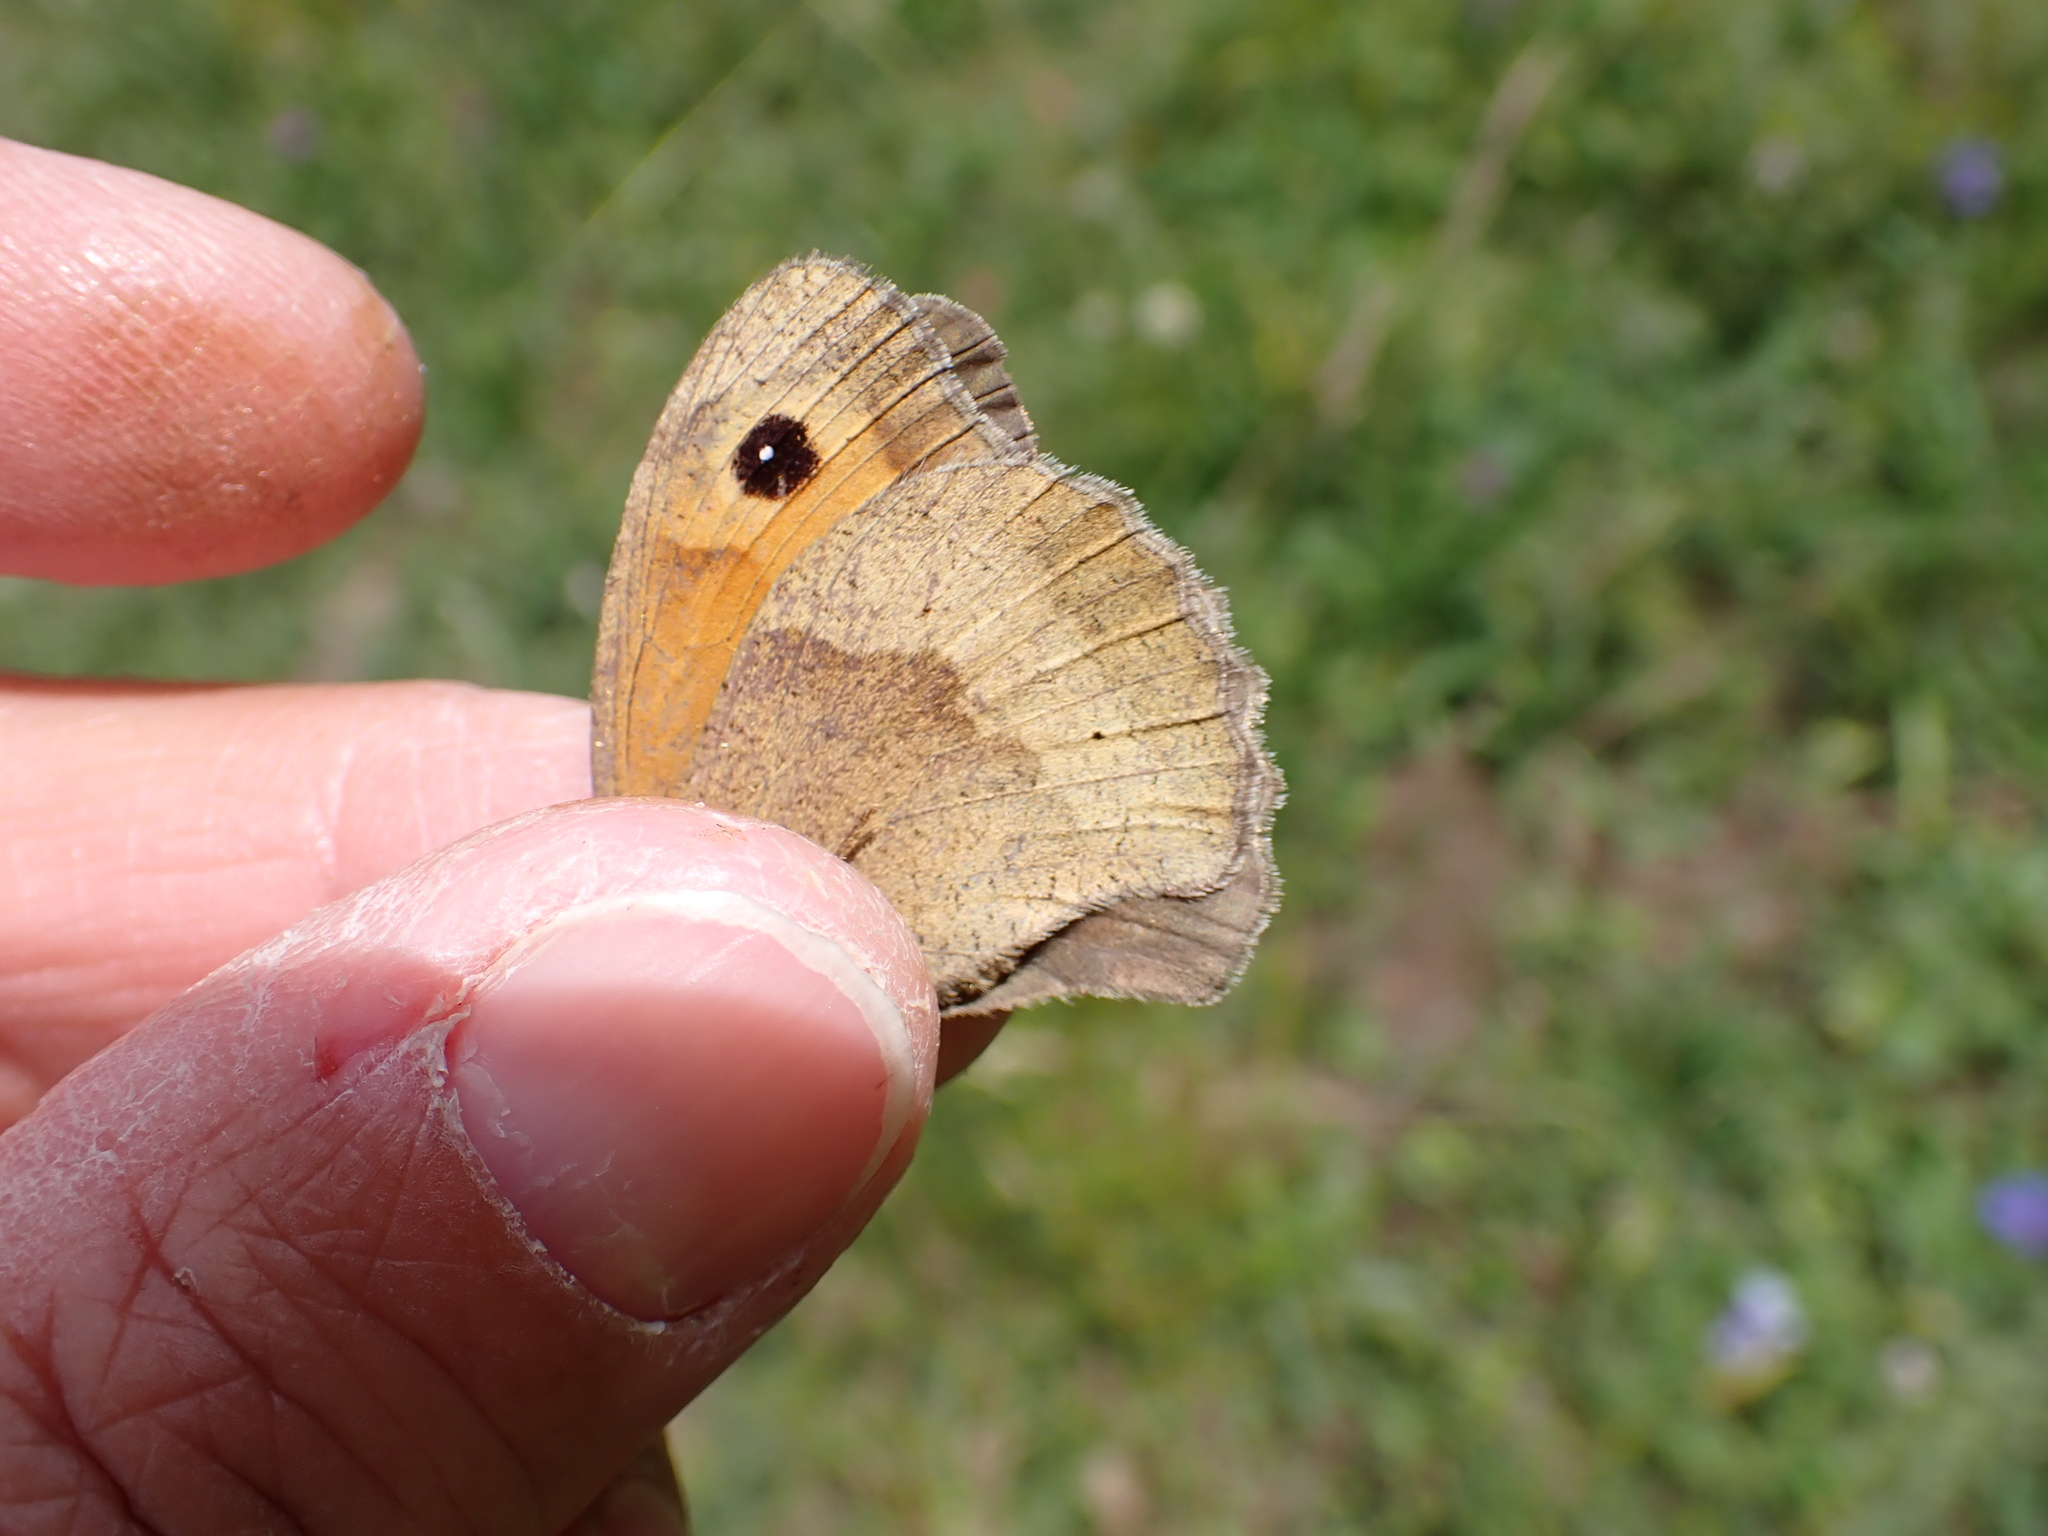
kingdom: Animalia
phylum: Arthropoda
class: Insecta
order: Lepidoptera
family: Nymphalidae
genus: Maniola
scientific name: Maniola jurtina
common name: Meadow brown
